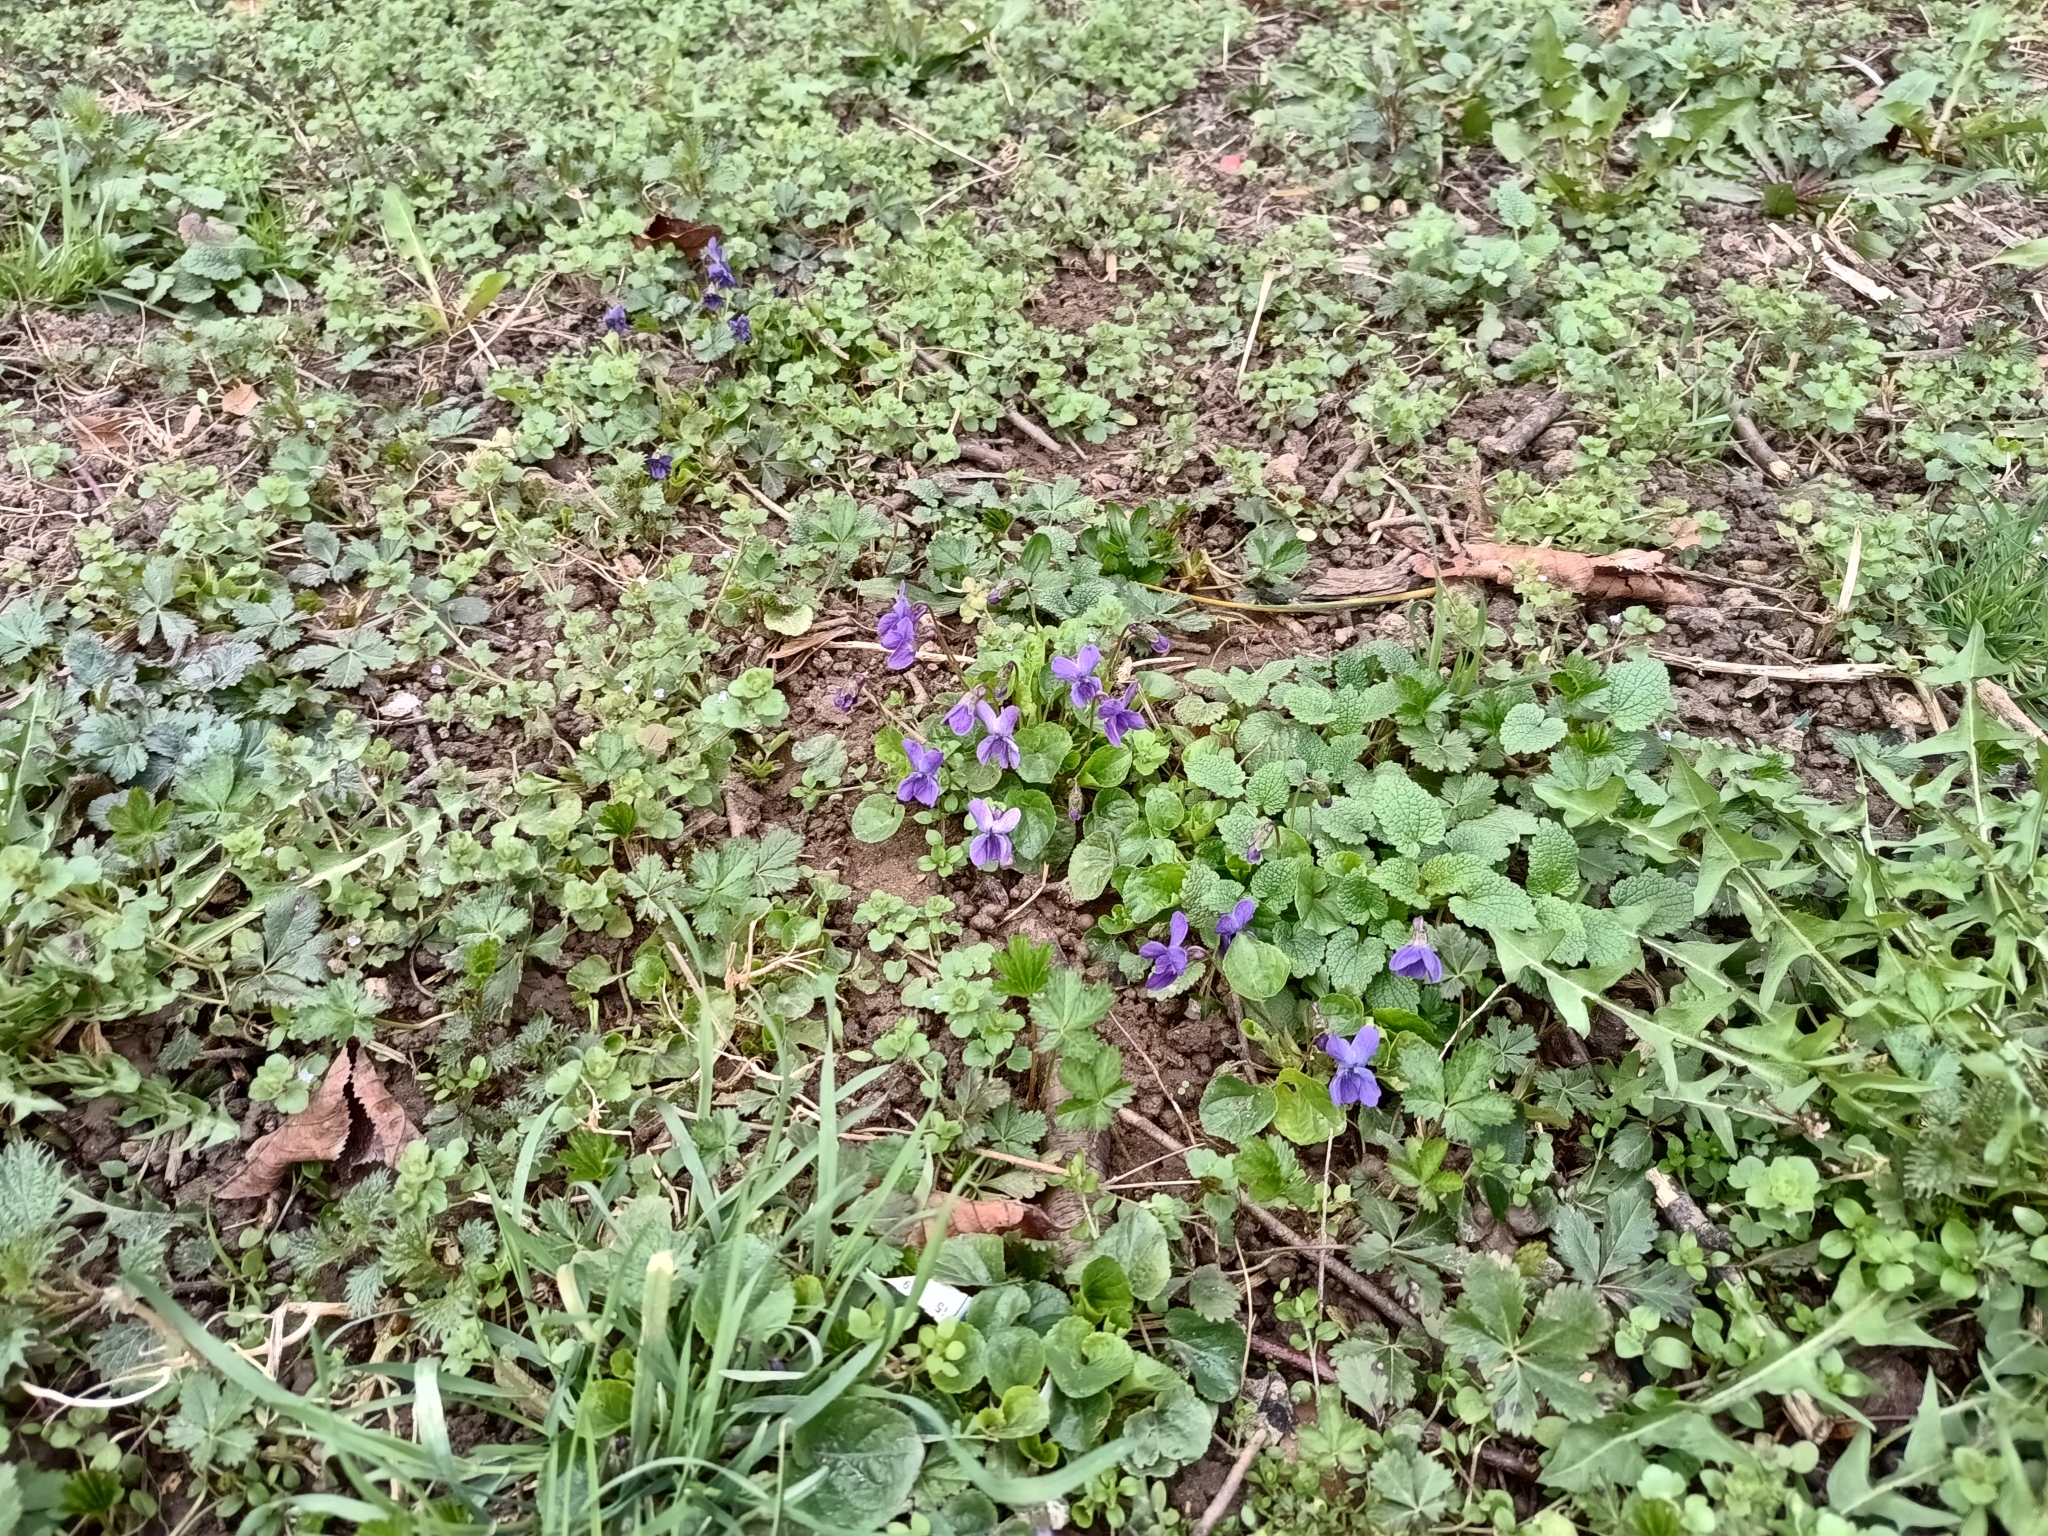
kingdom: Plantae
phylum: Tracheophyta
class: Magnoliopsida
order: Malpighiales
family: Violaceae
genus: Viola
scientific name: Viola odorata
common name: Sweet violet
